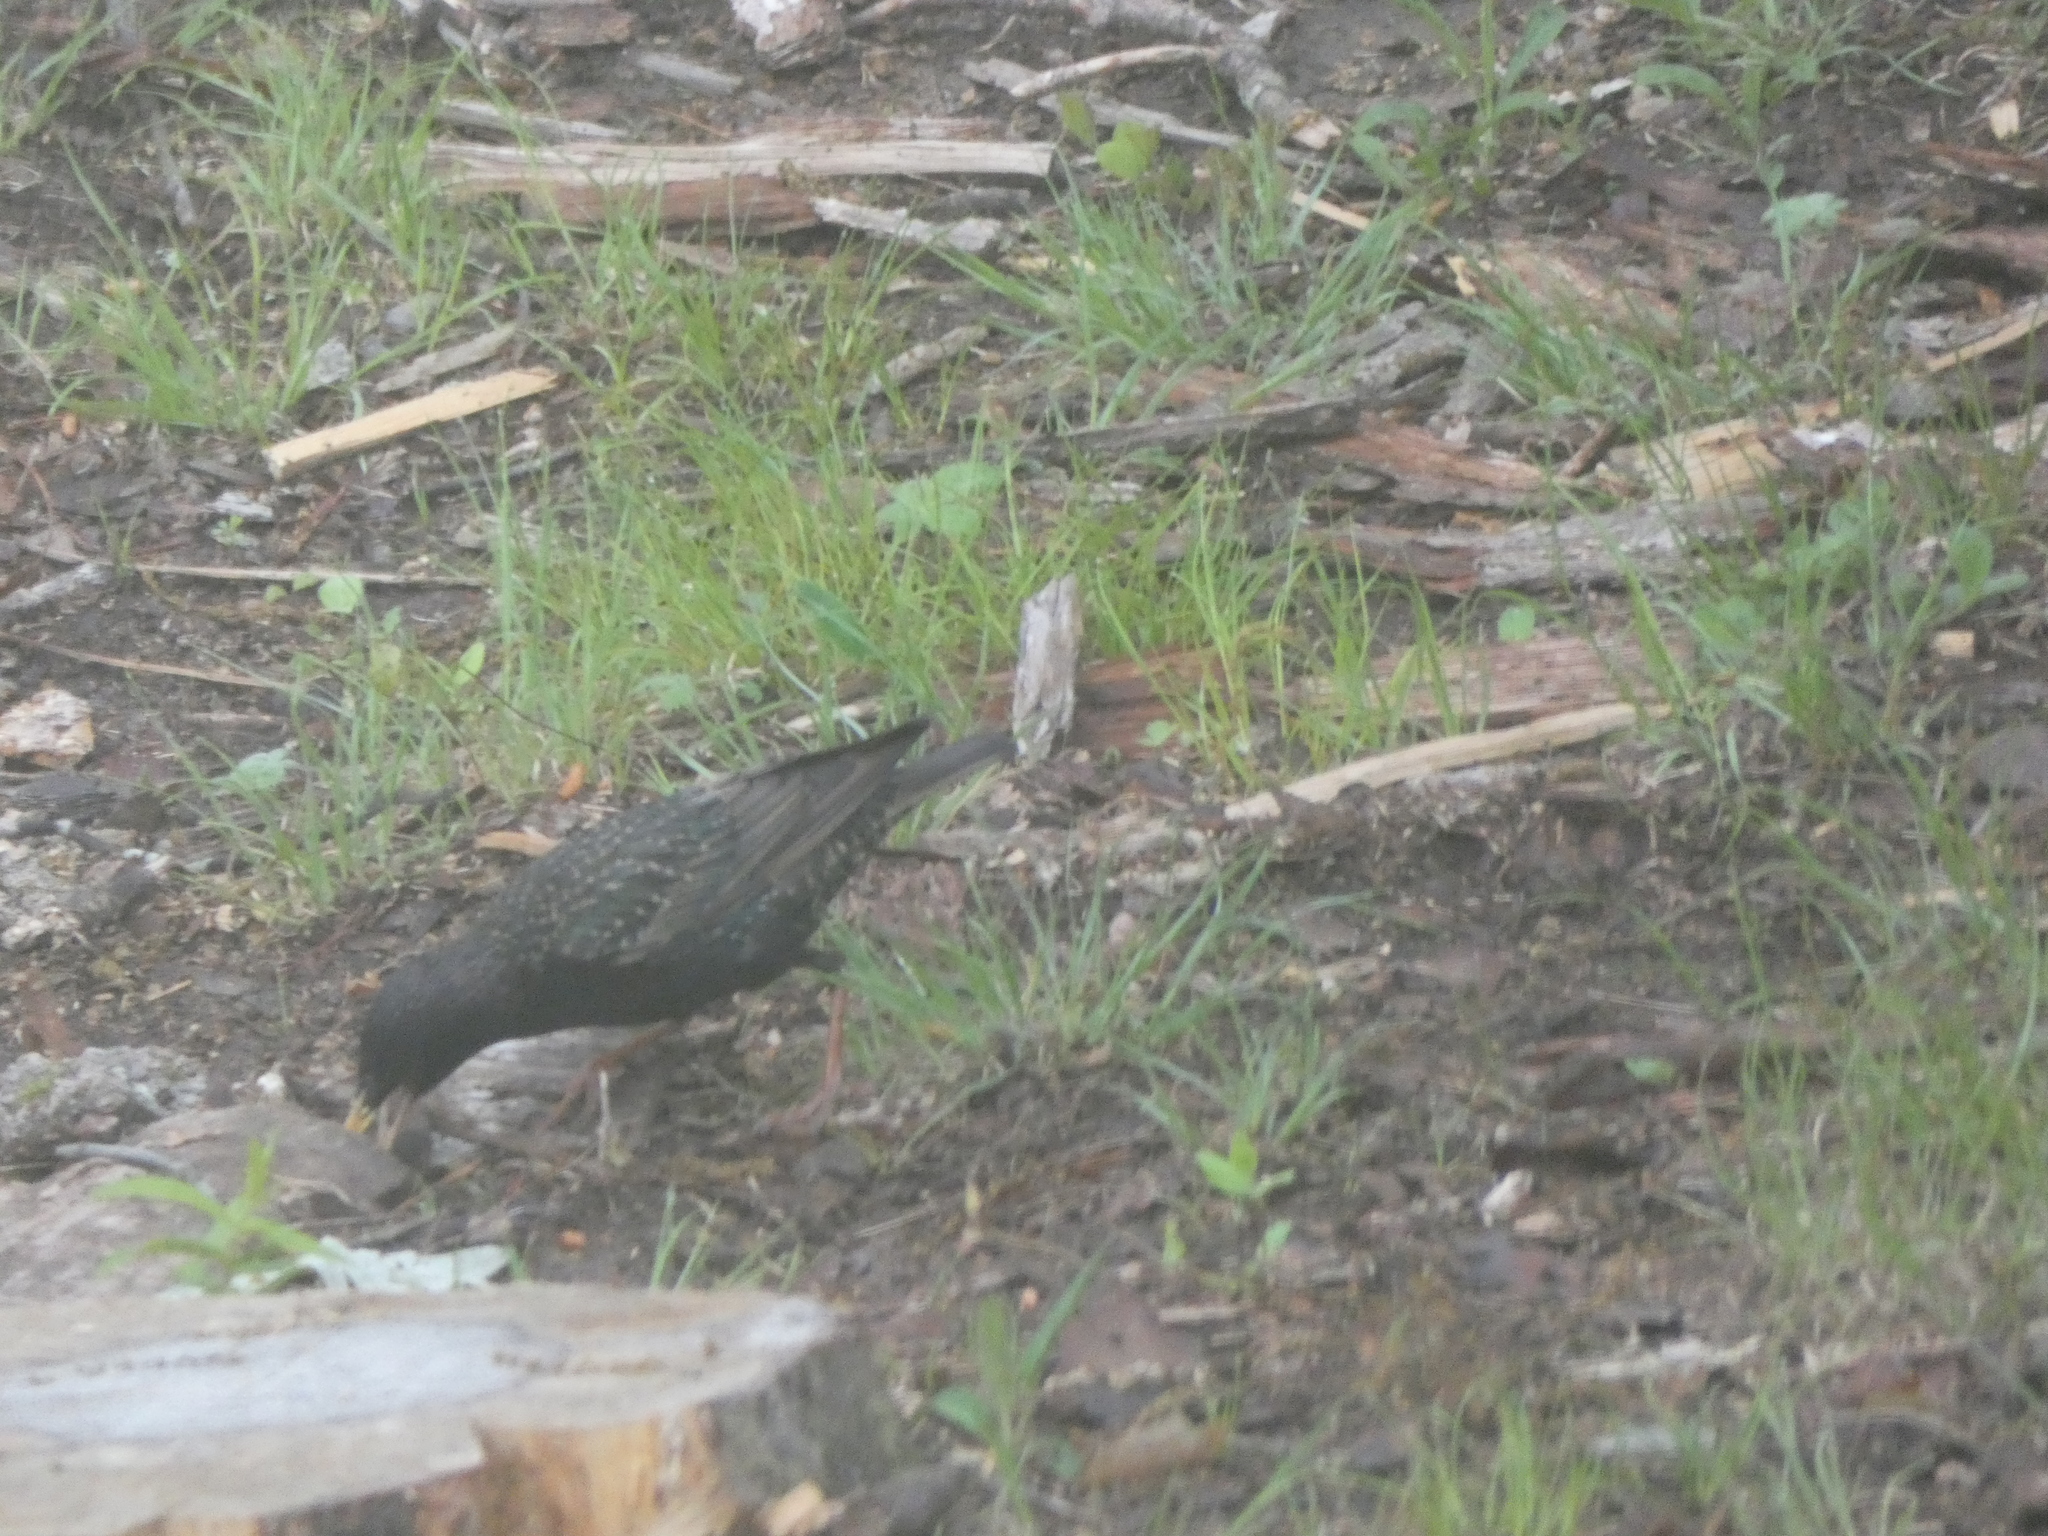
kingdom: Animalia
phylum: Chordata
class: Aves
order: Passeriformes
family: Sturnidae
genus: Sturnus
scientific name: Sturnus vulgaris
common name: Common starling
